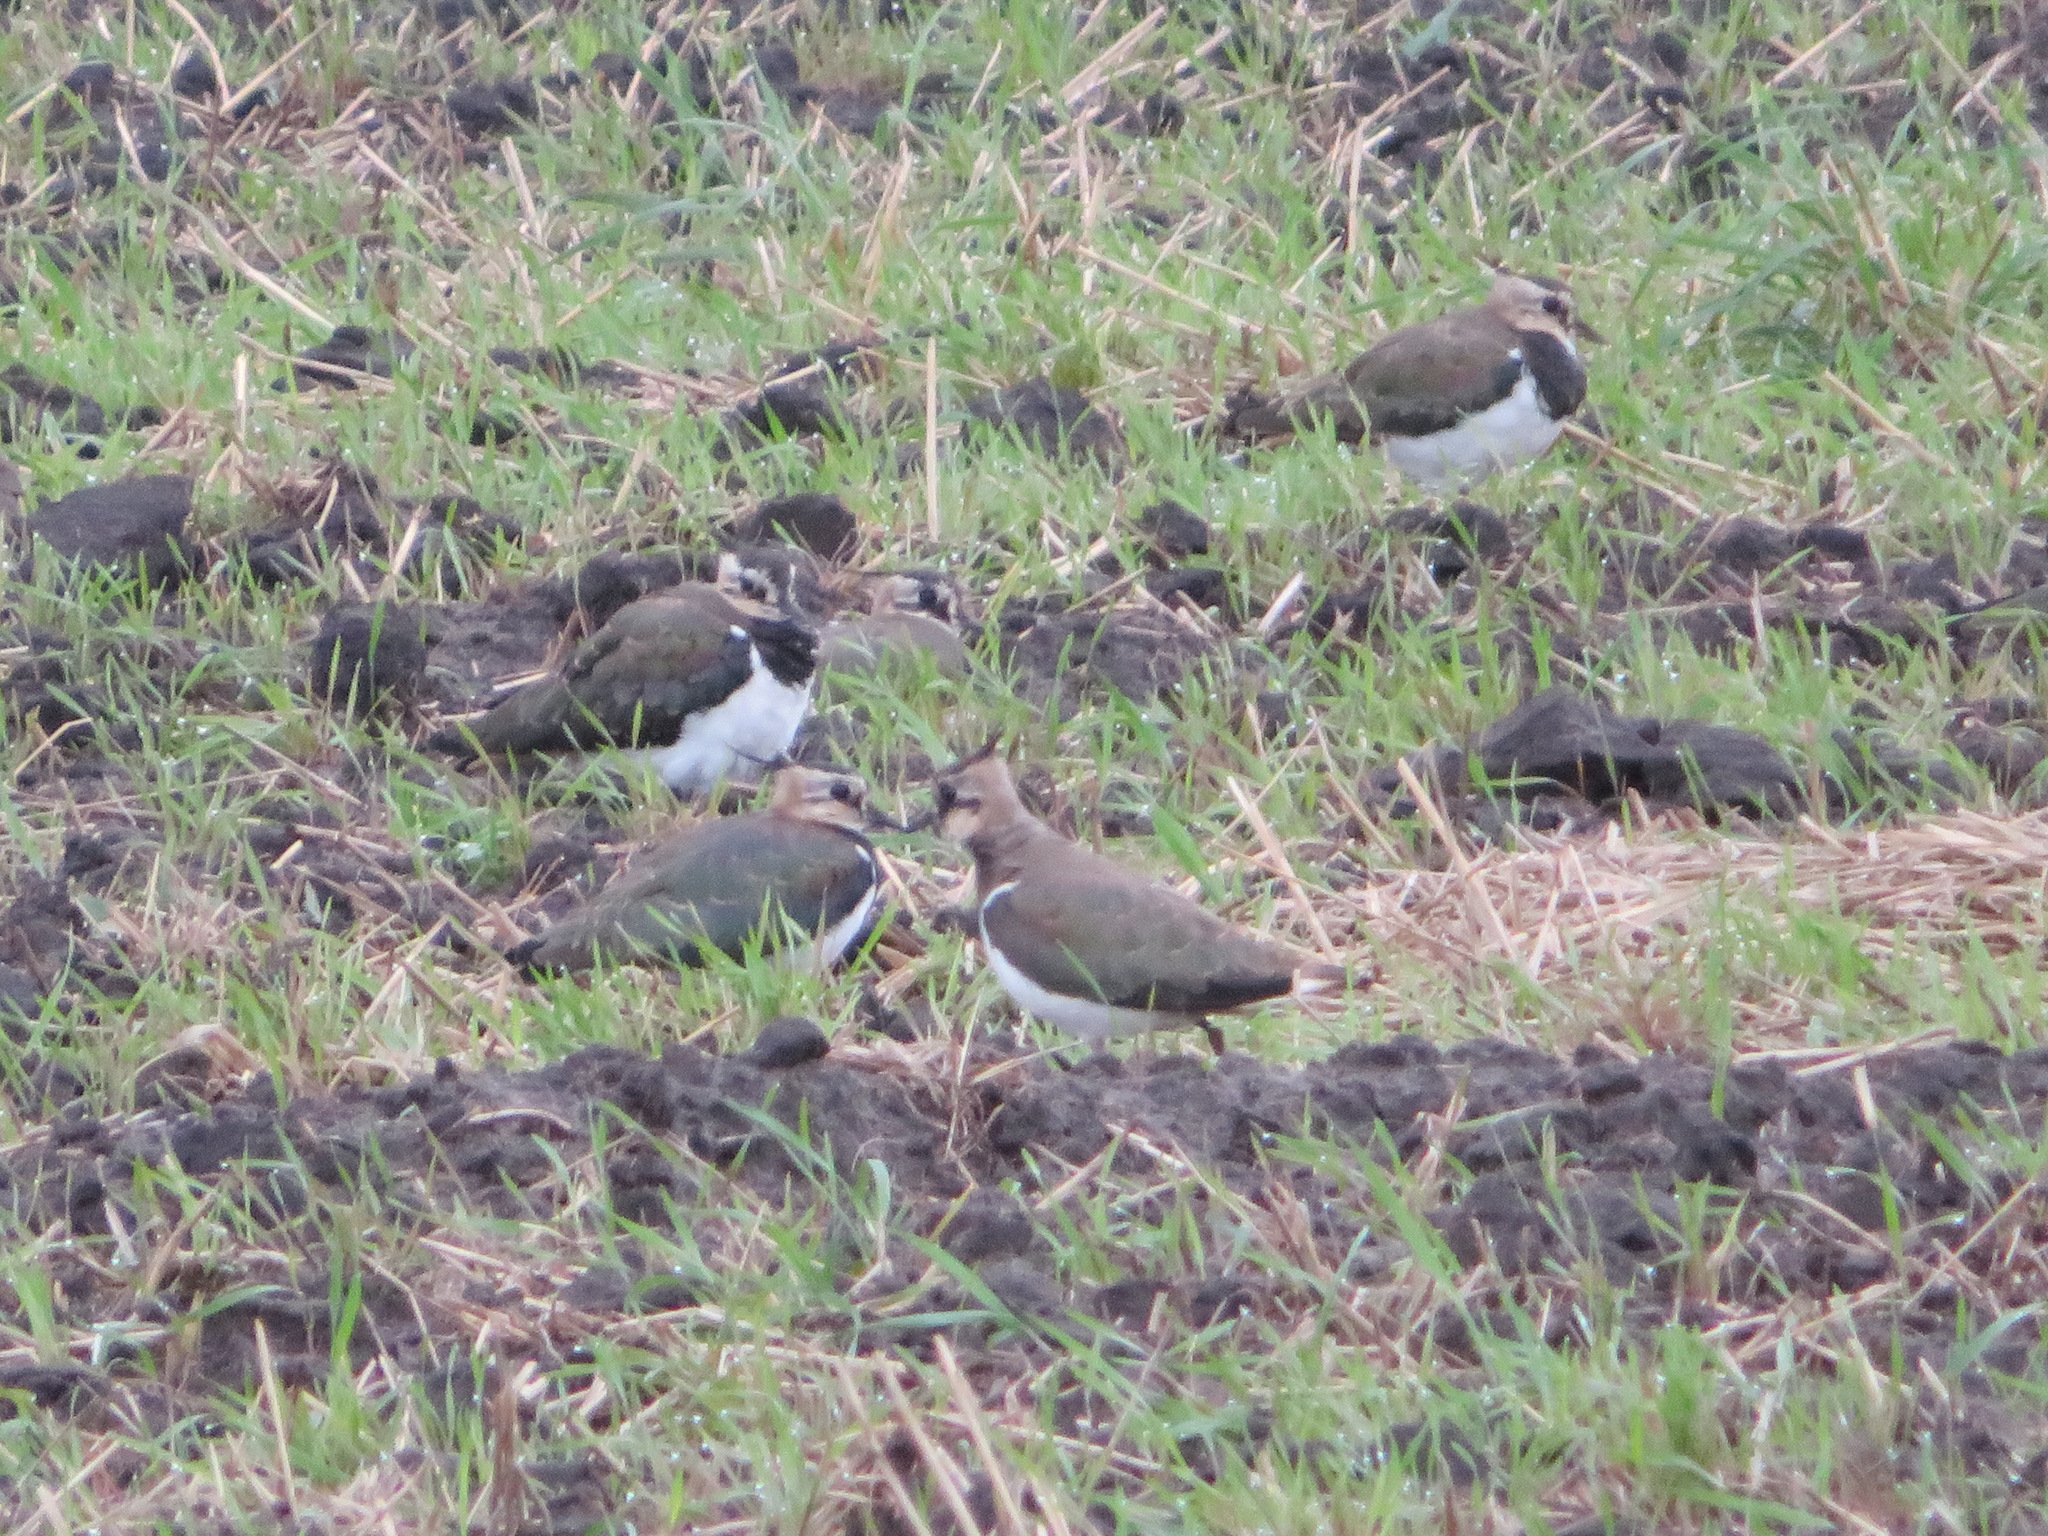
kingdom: Animalia
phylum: Chordata
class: Aves
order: Charadriiformes
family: Charadriidae
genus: Vanellus
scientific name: Vanellus vanellus
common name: Northern lapwing
